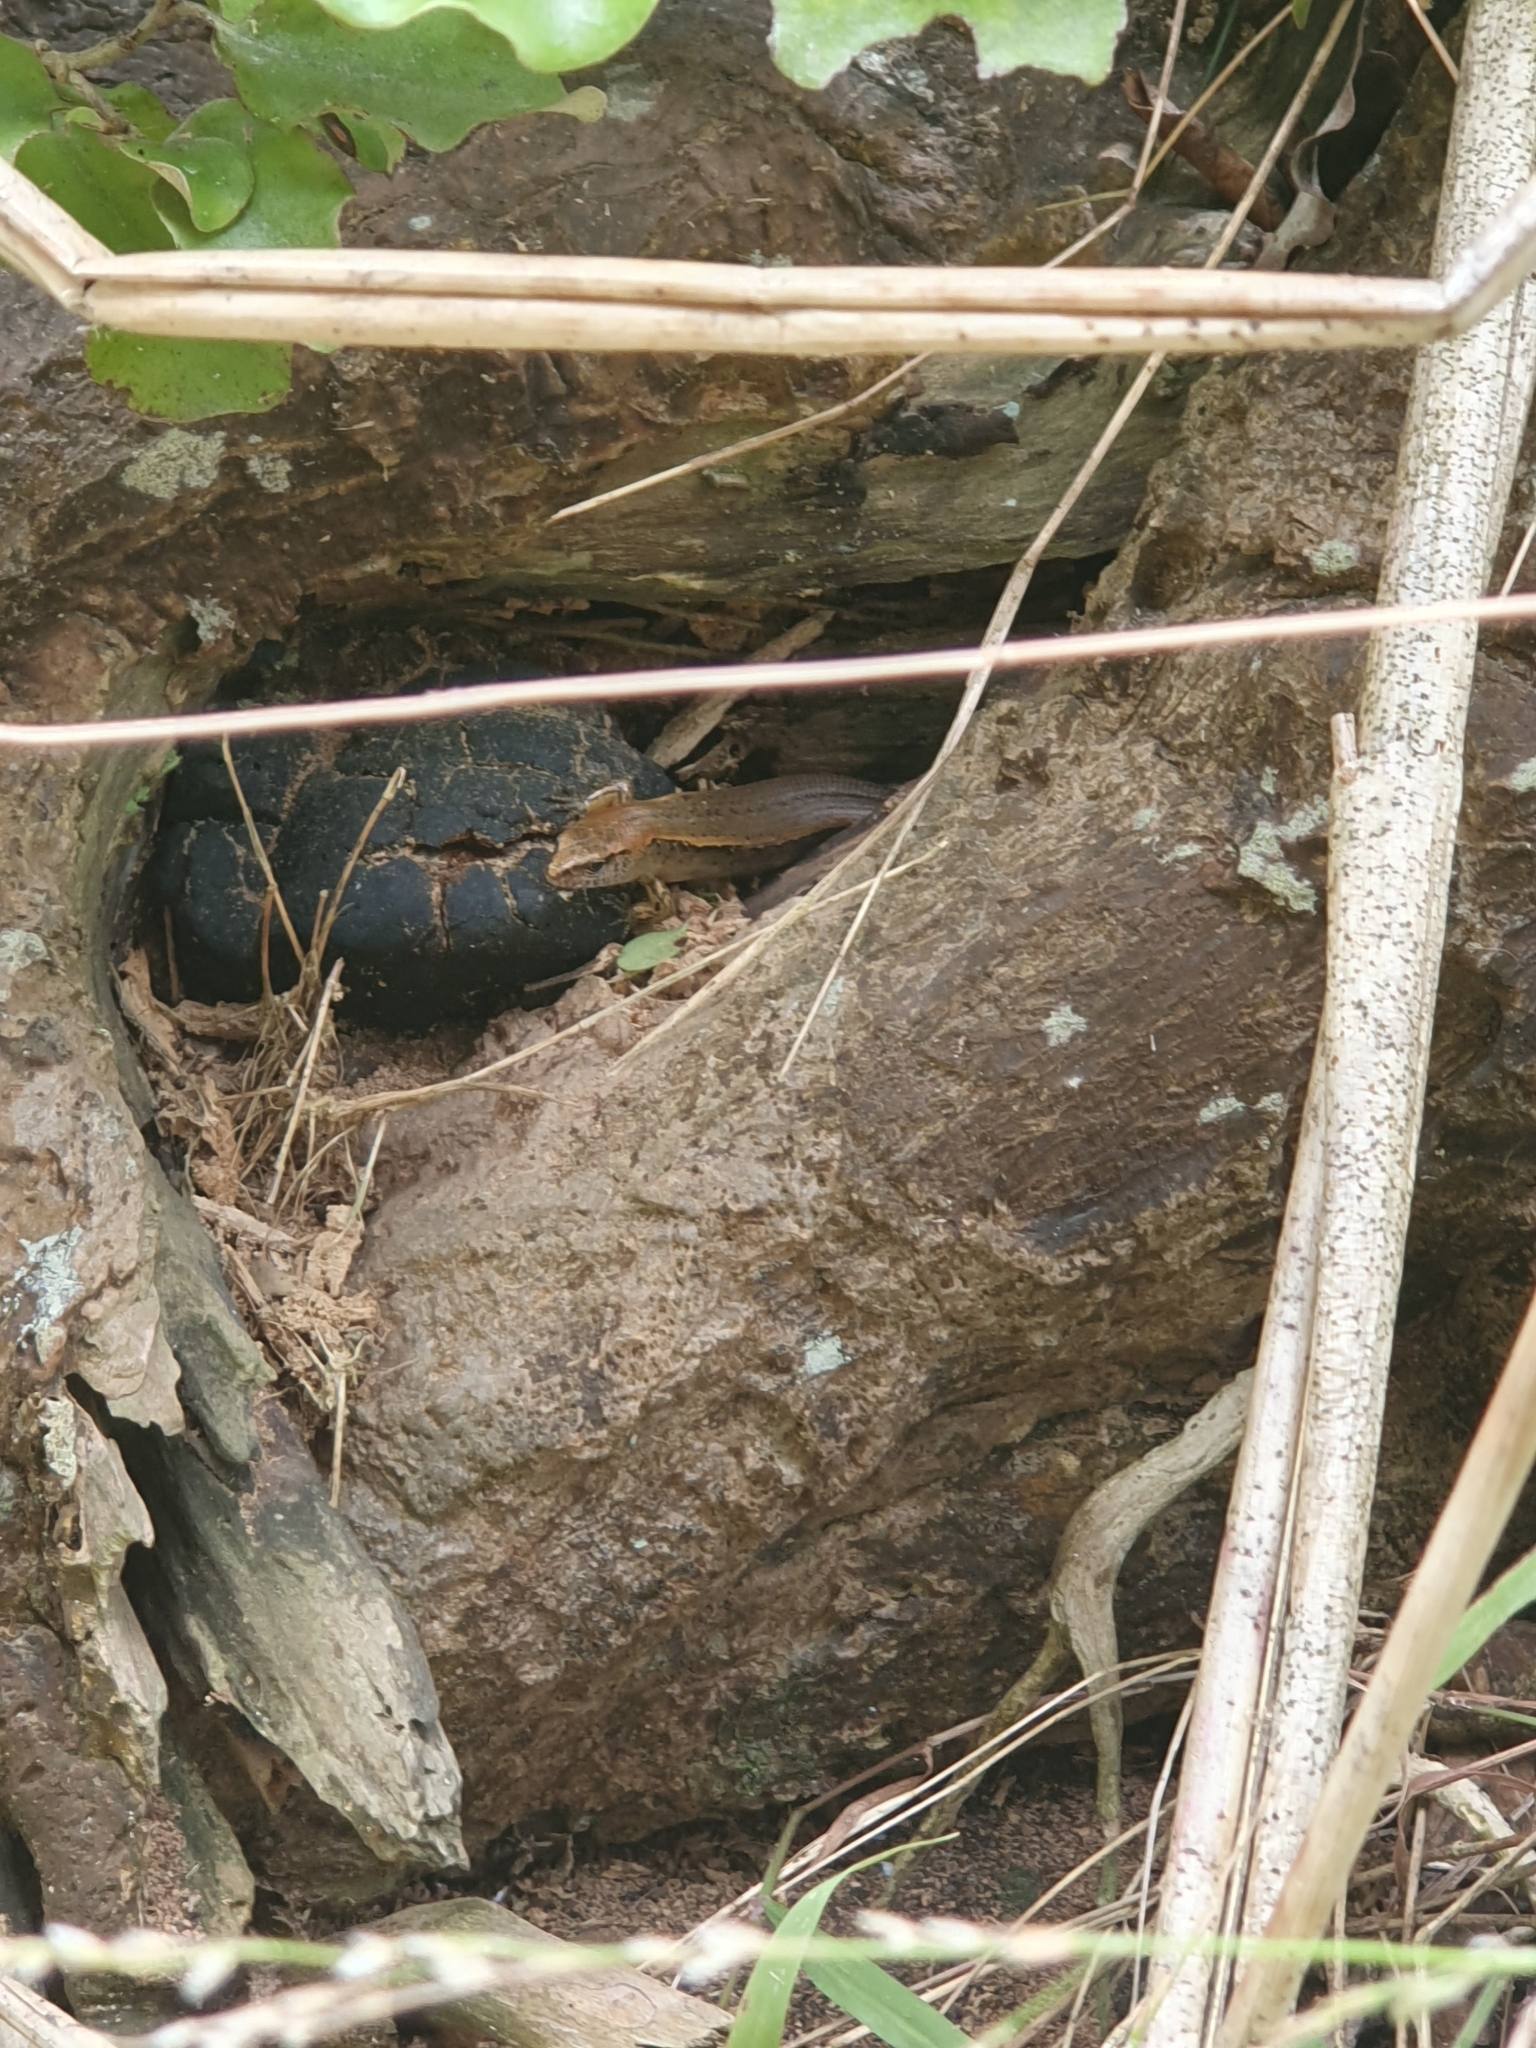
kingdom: Animalia
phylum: Chordata
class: Squamata
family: Scincidae
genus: Oligosoma
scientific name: Oligosoma aeneum
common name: Copper skink
